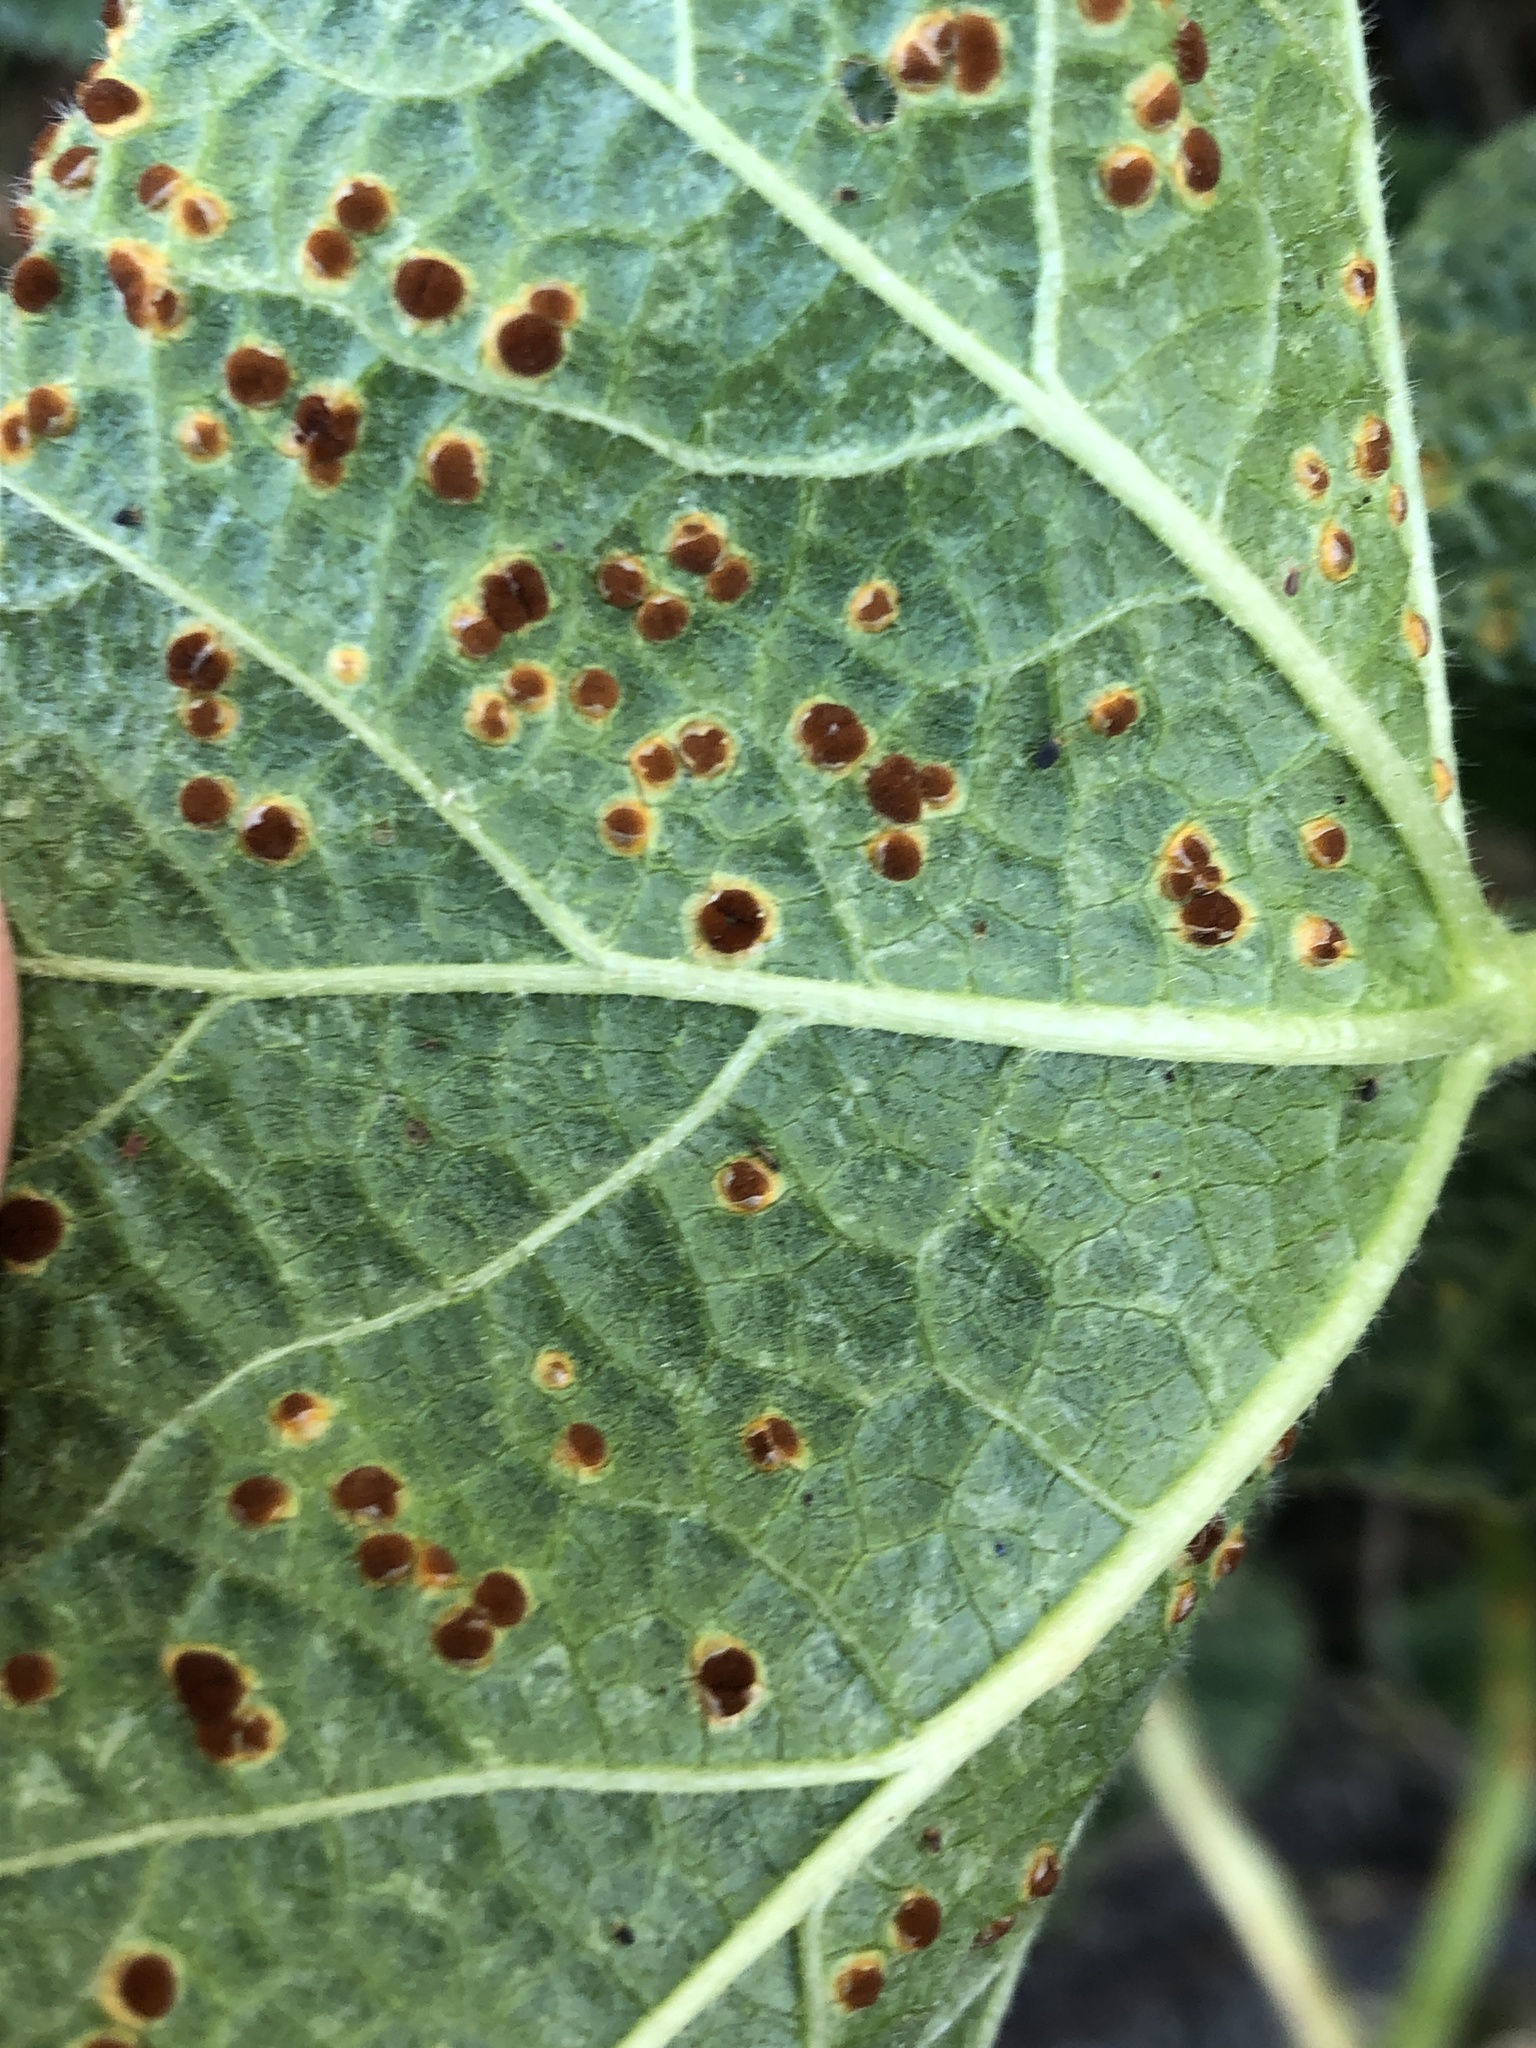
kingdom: Fungi
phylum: Basidiomycota
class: Pucciniomycetes
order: Pucciniales
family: Pucciniaceae
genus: Puccinia
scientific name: Puccinia malvacearum
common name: Hollyhock rust
